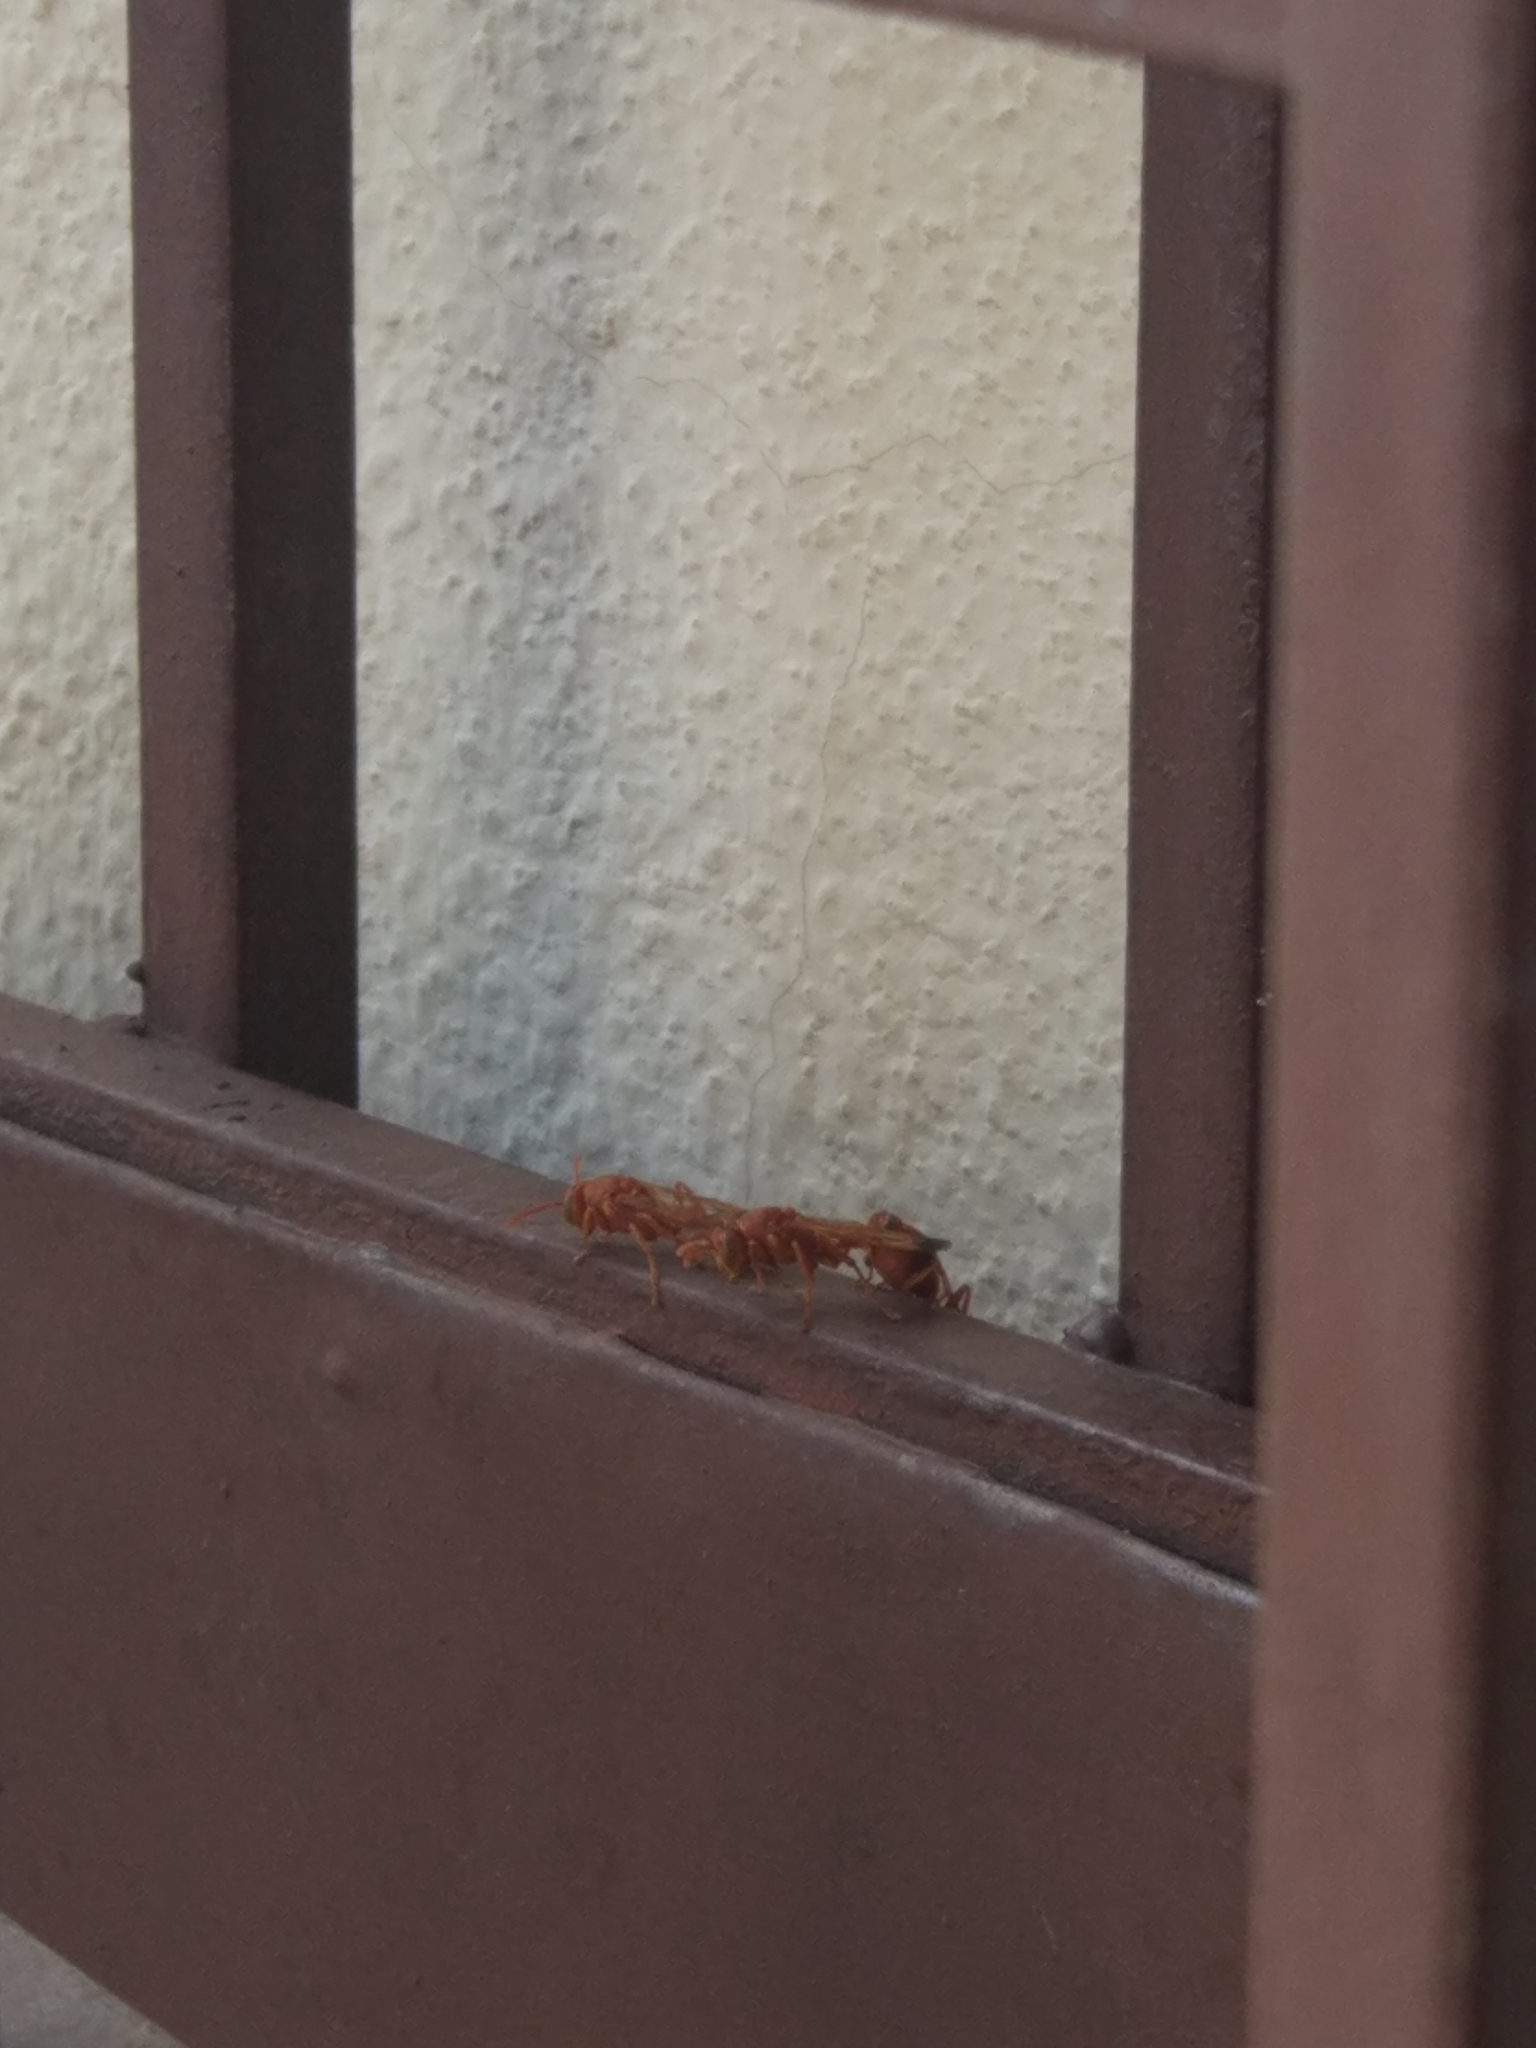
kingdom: Animalia
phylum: Arthropoda
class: Insecta
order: Hymenoptera
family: Vespidae
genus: Ropalidia
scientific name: Ropalidia marginata
